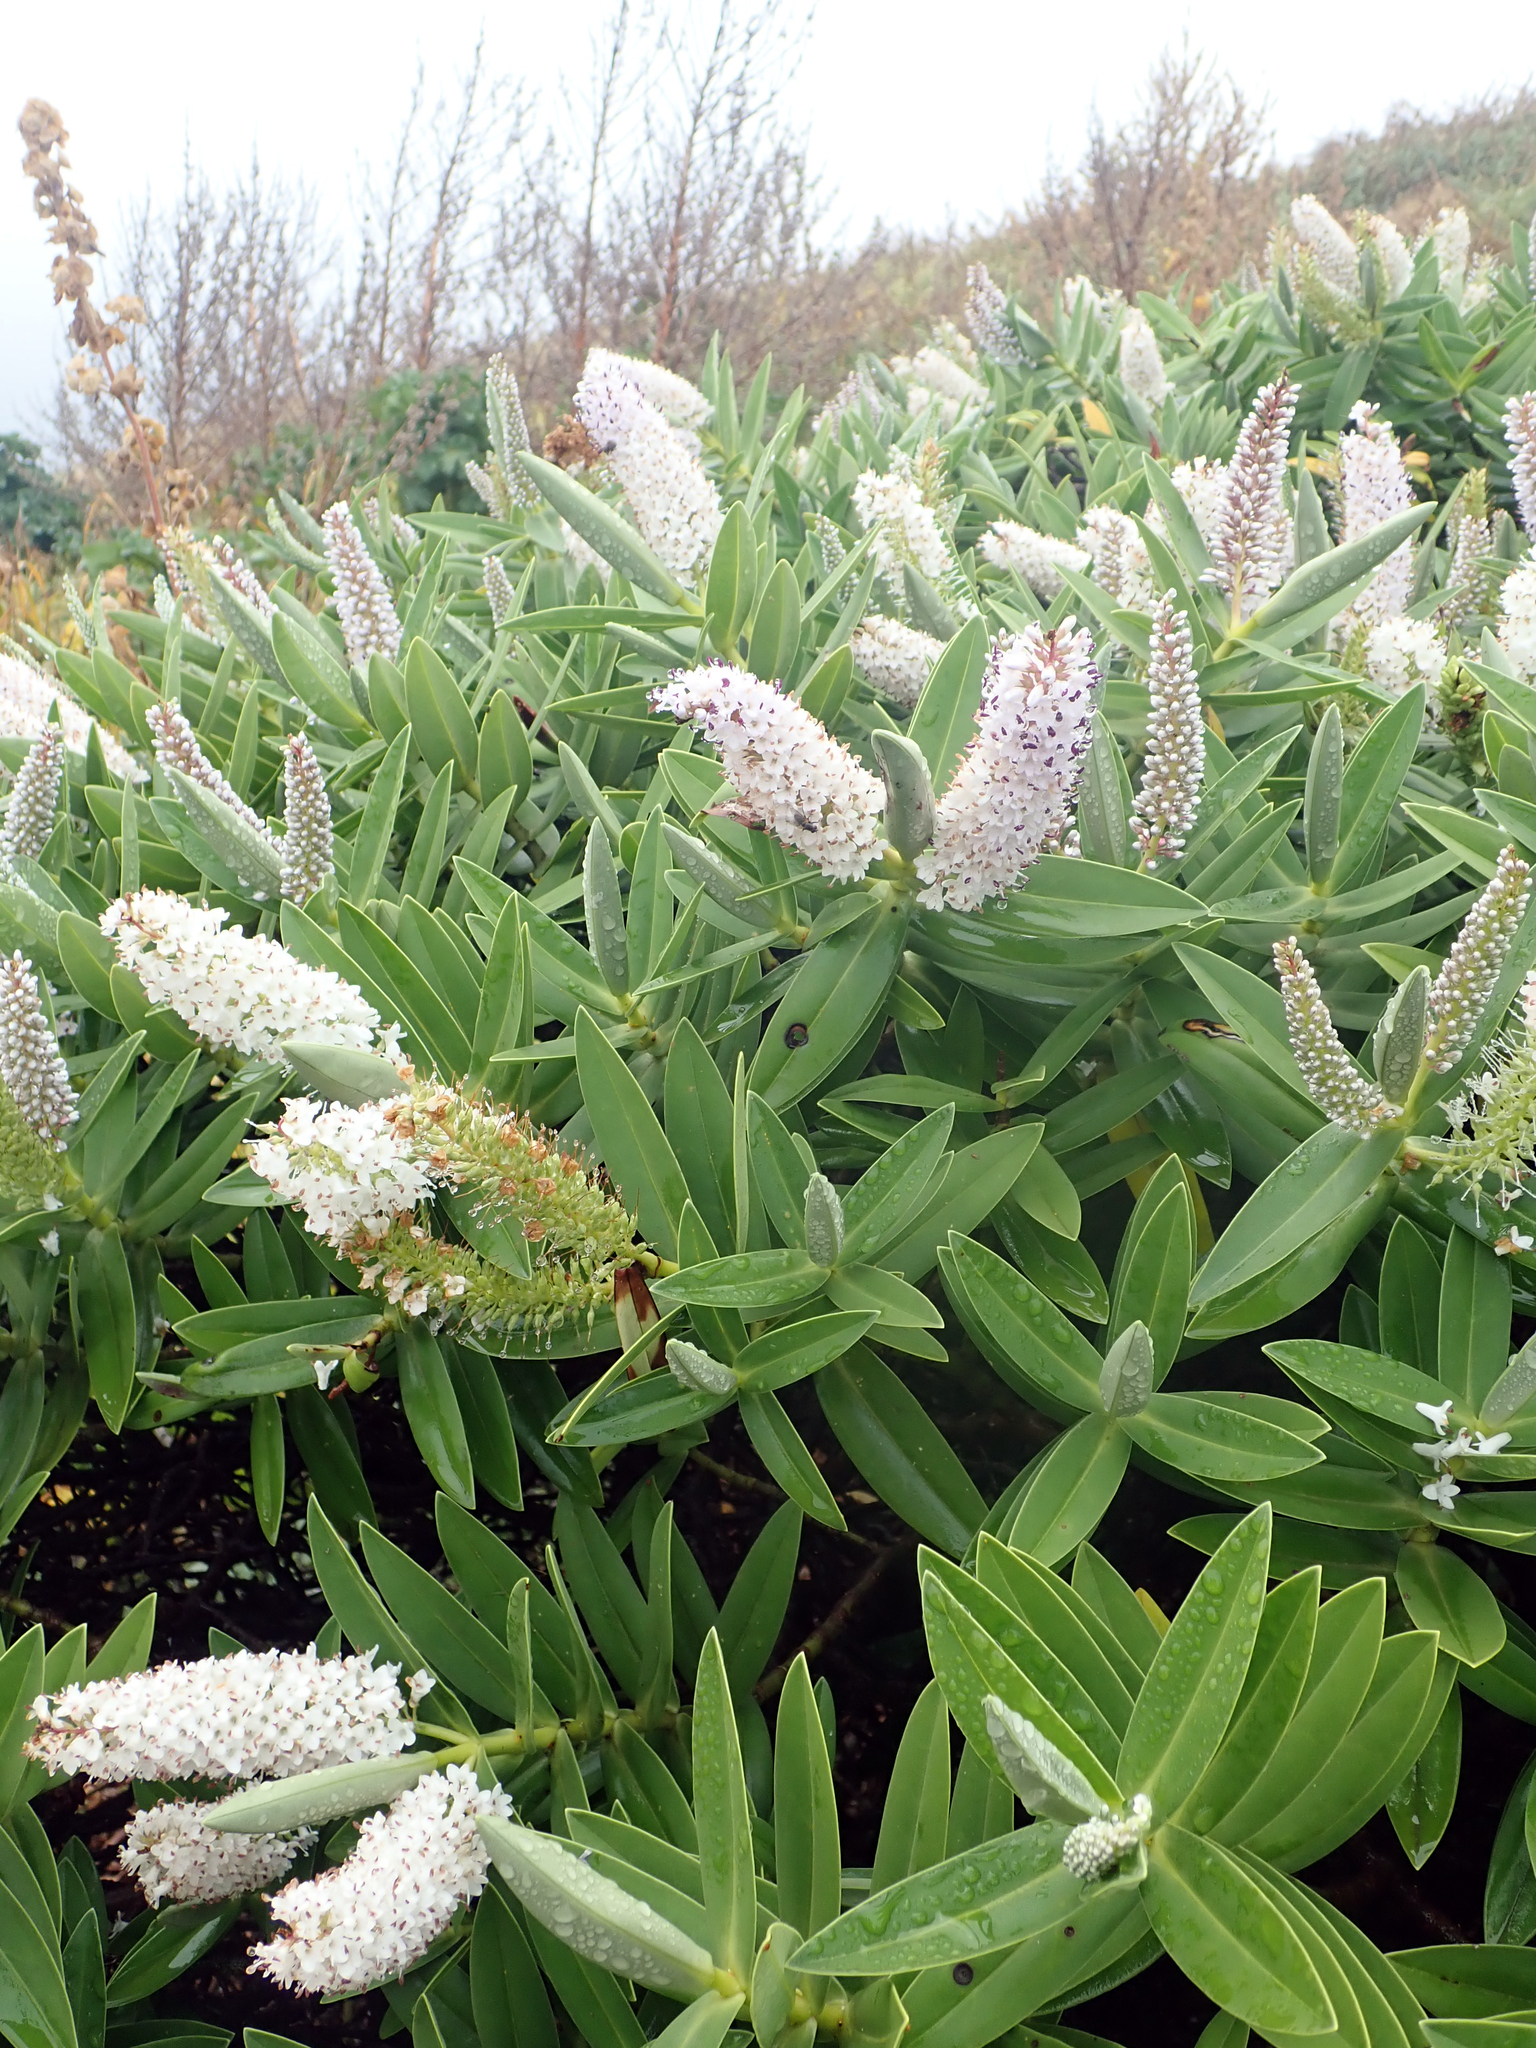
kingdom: Plantae
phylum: Tracheophyta
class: Magnoliopsida
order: Lamiales
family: Plantaginaceae
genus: Veronica
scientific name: Veronica dieffenbachii
